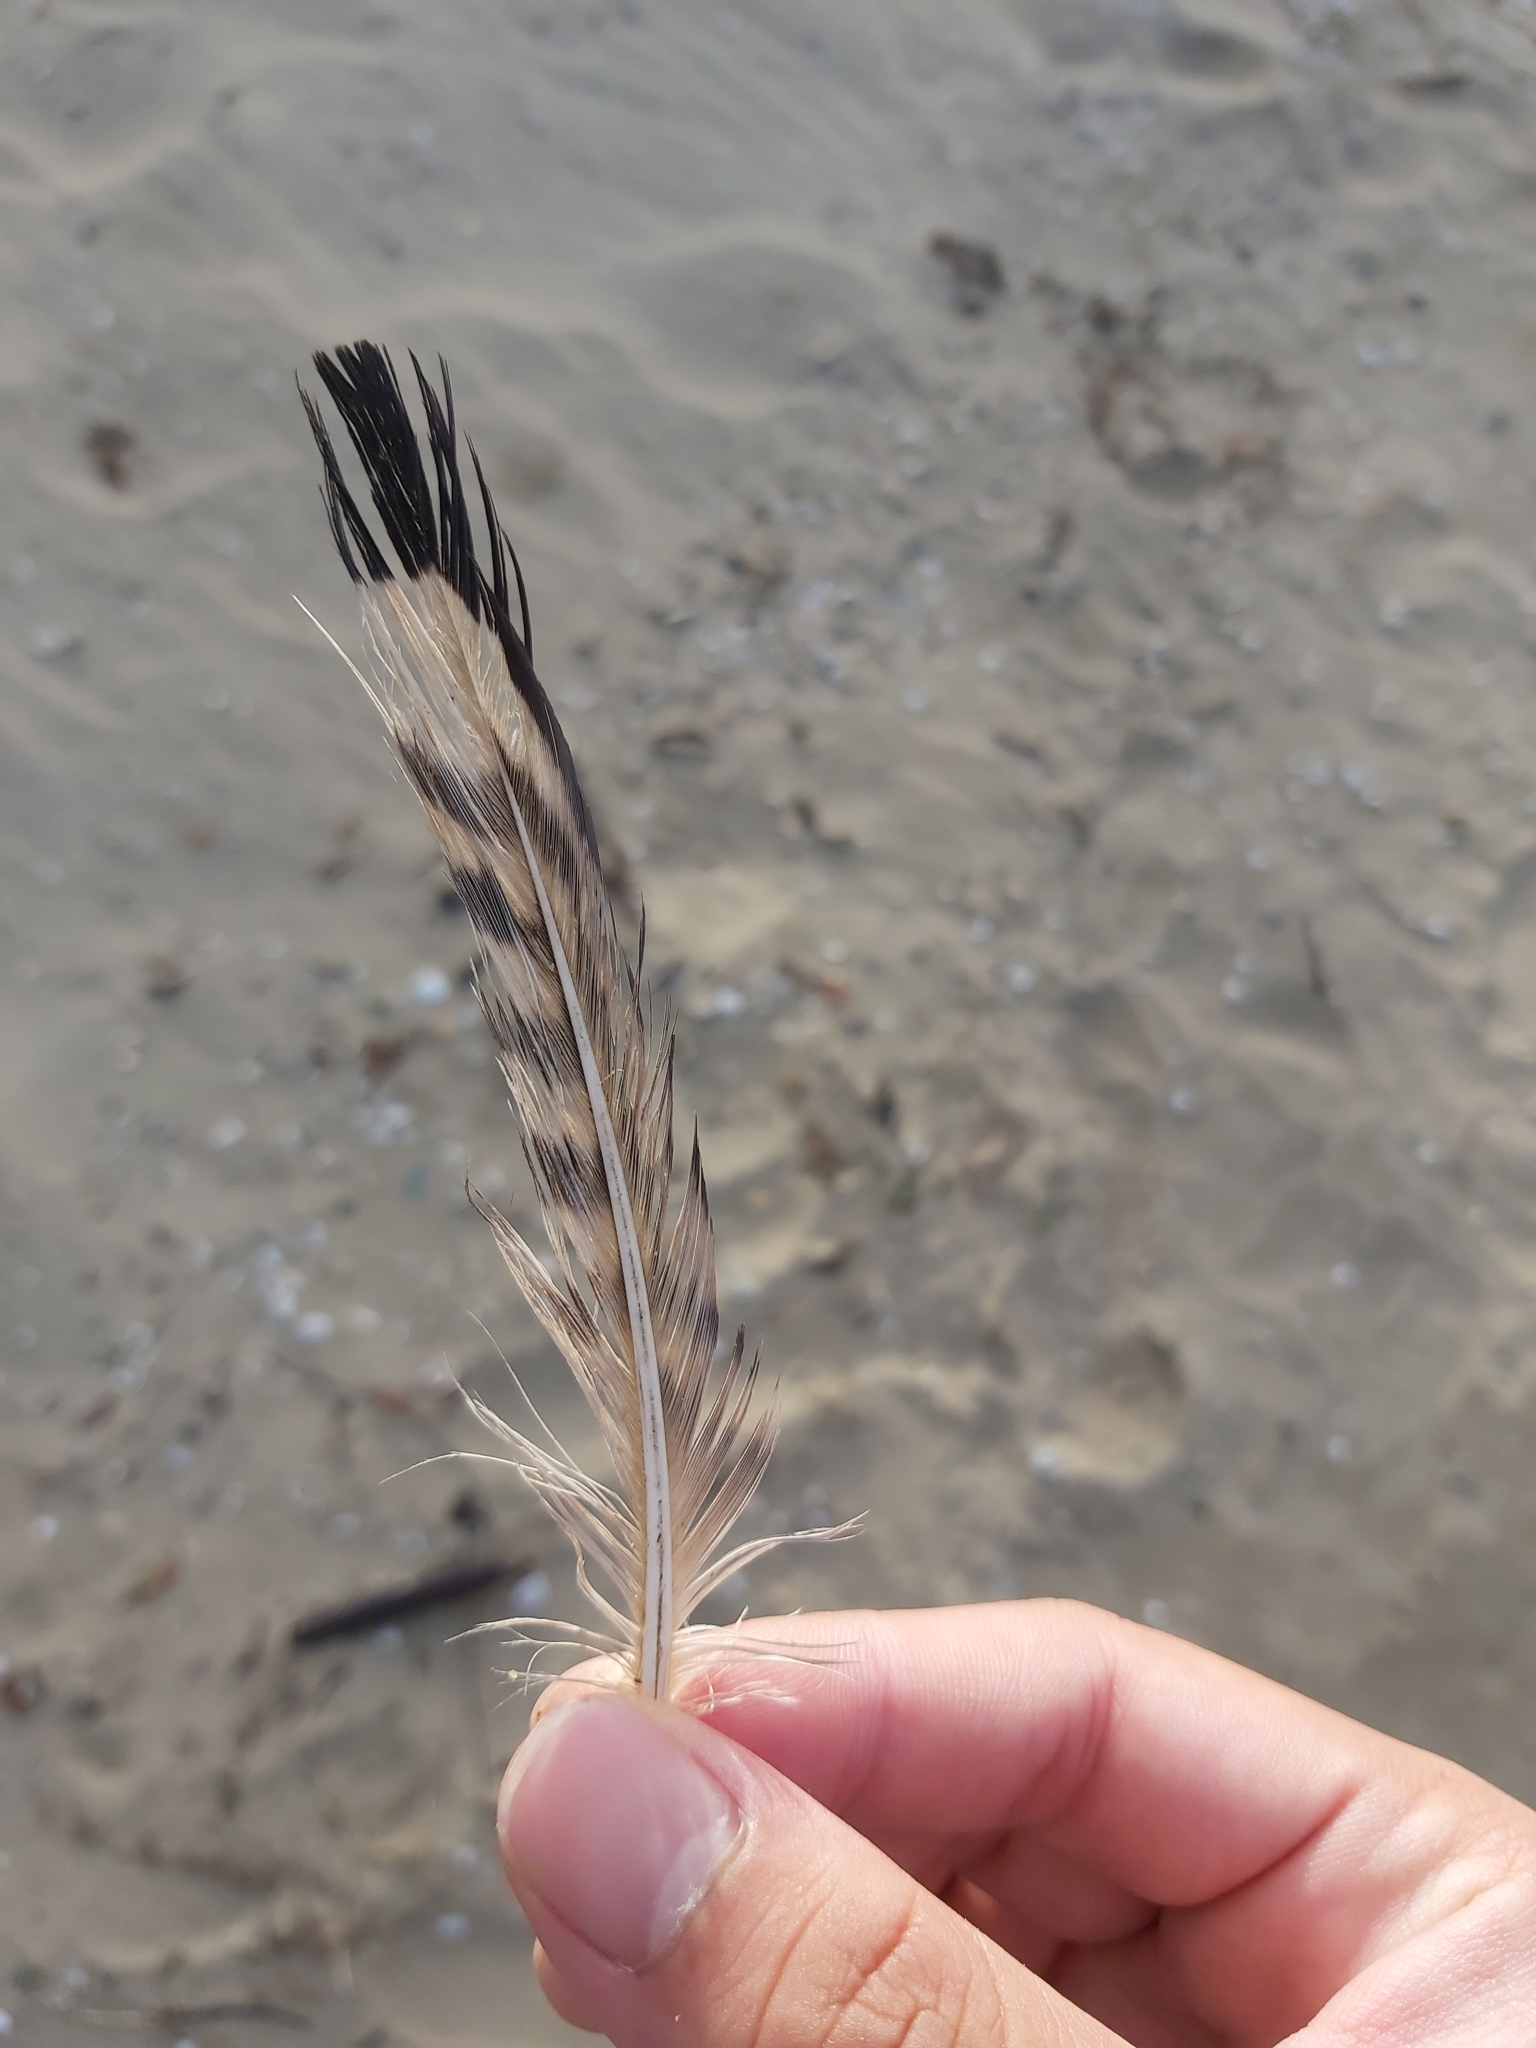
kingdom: Animalia
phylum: Chordata
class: Aves
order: Charadriiformes
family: Burhinidae
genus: Burhinus
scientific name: Burhinus grallarius
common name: Bush stone-curlew
